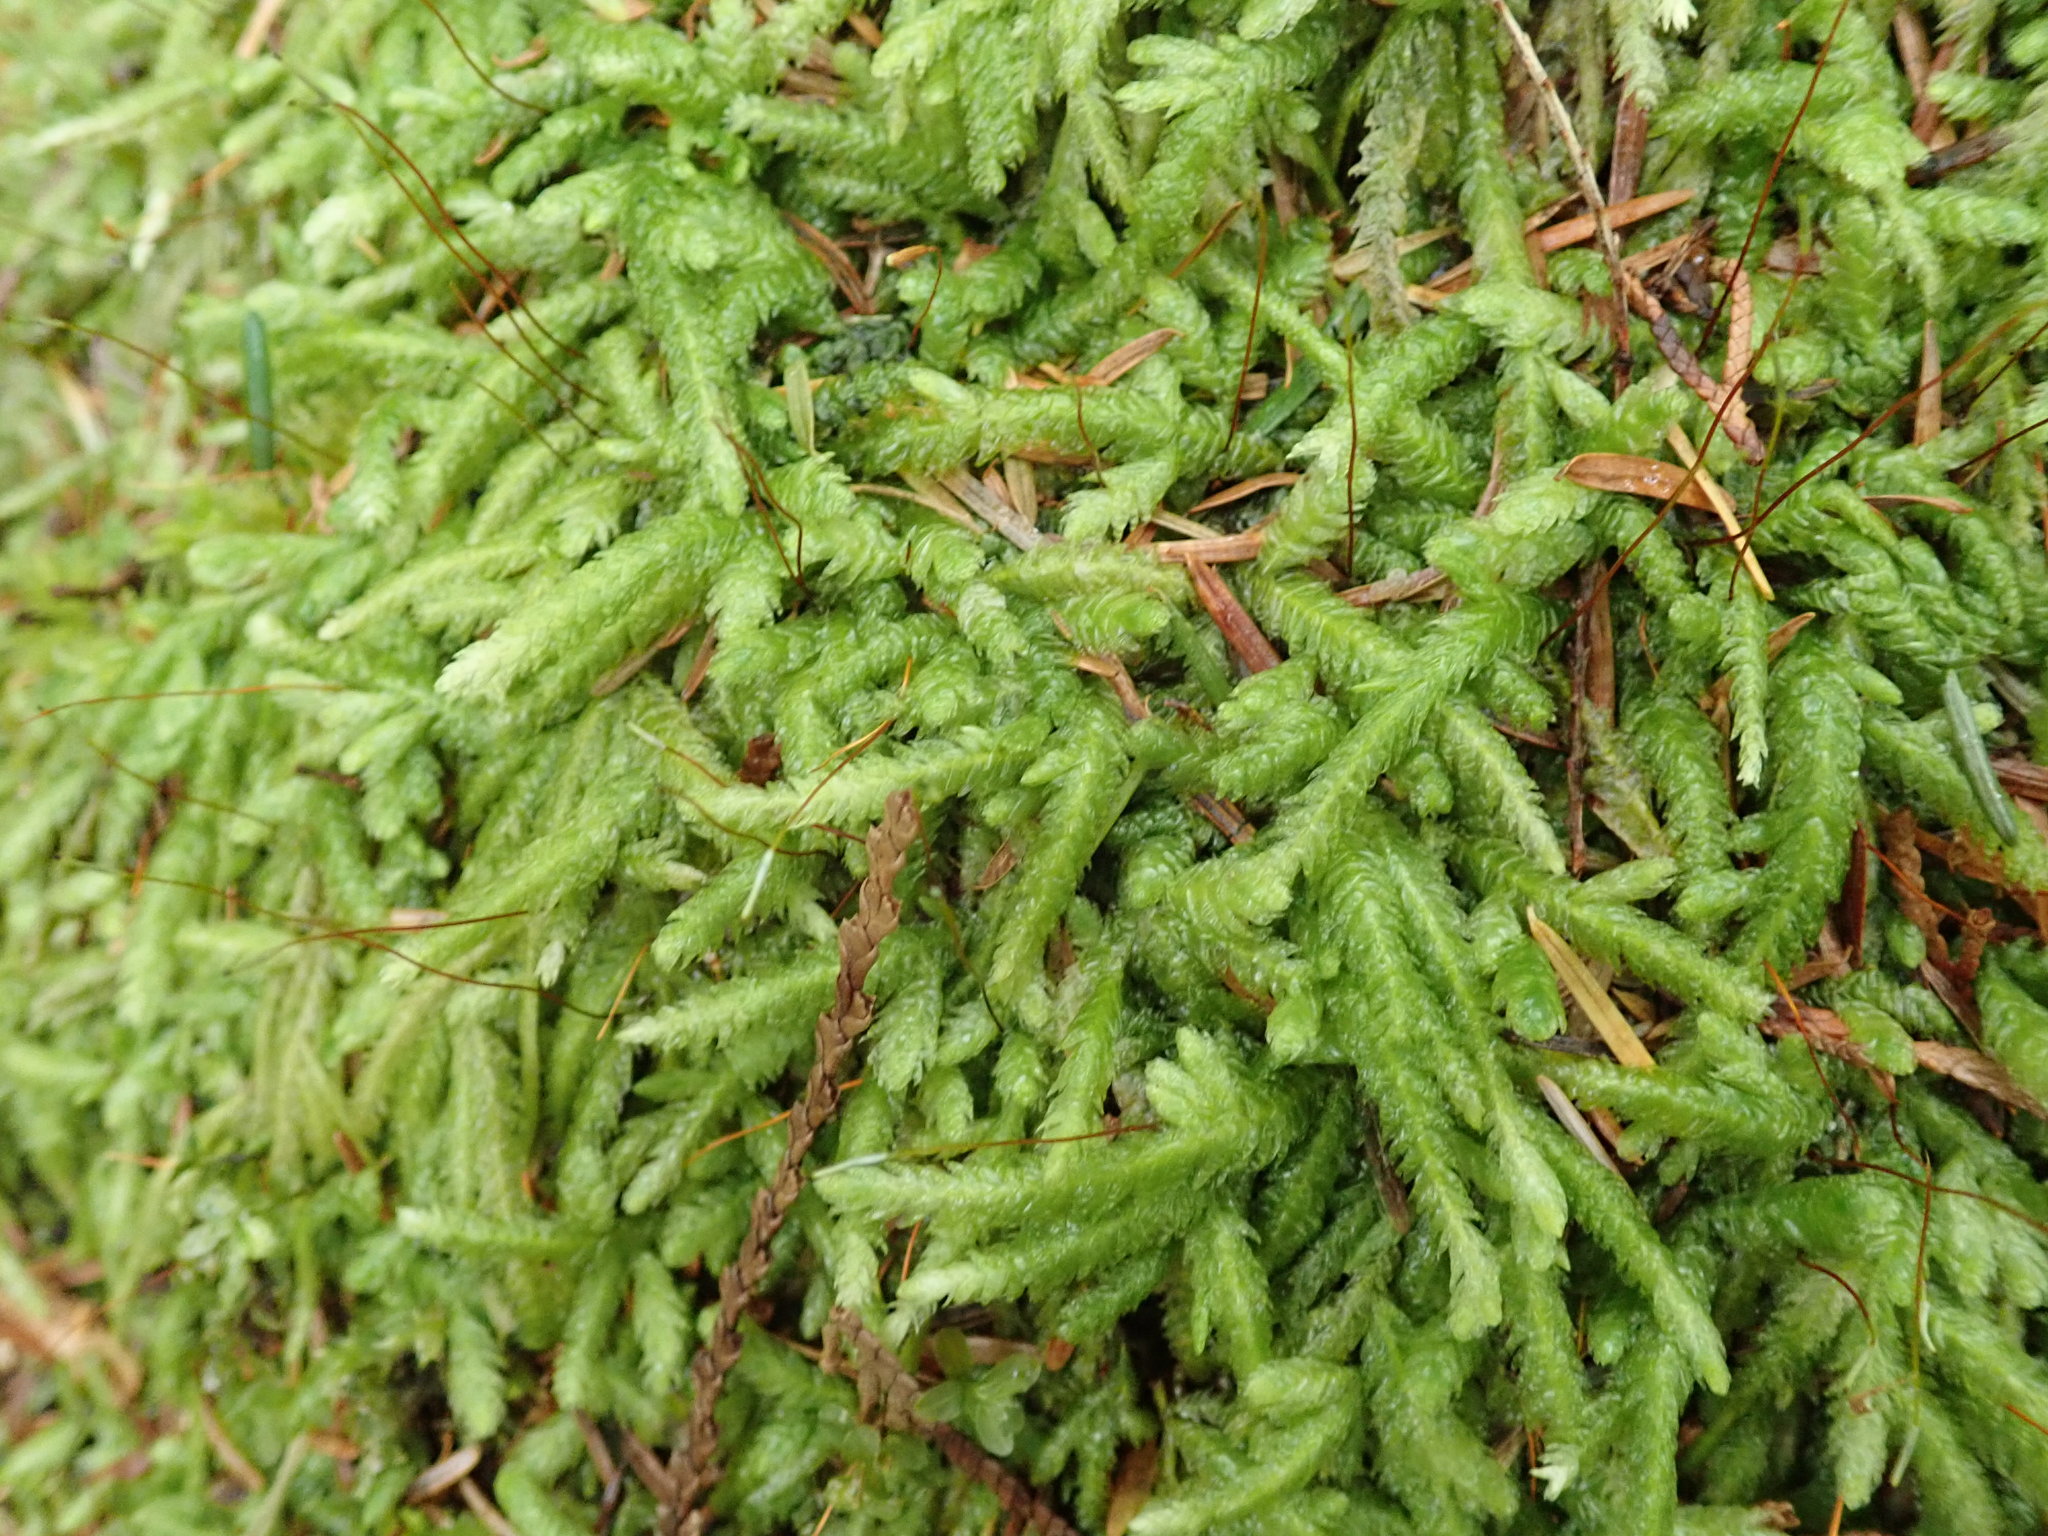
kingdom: Plantae
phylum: Bryophyta
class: Bryopsida
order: Hypnales
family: Plagiotheciaceae
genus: Plagiothecium
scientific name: Plagiothecium undulatum
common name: Waved silk-moss
